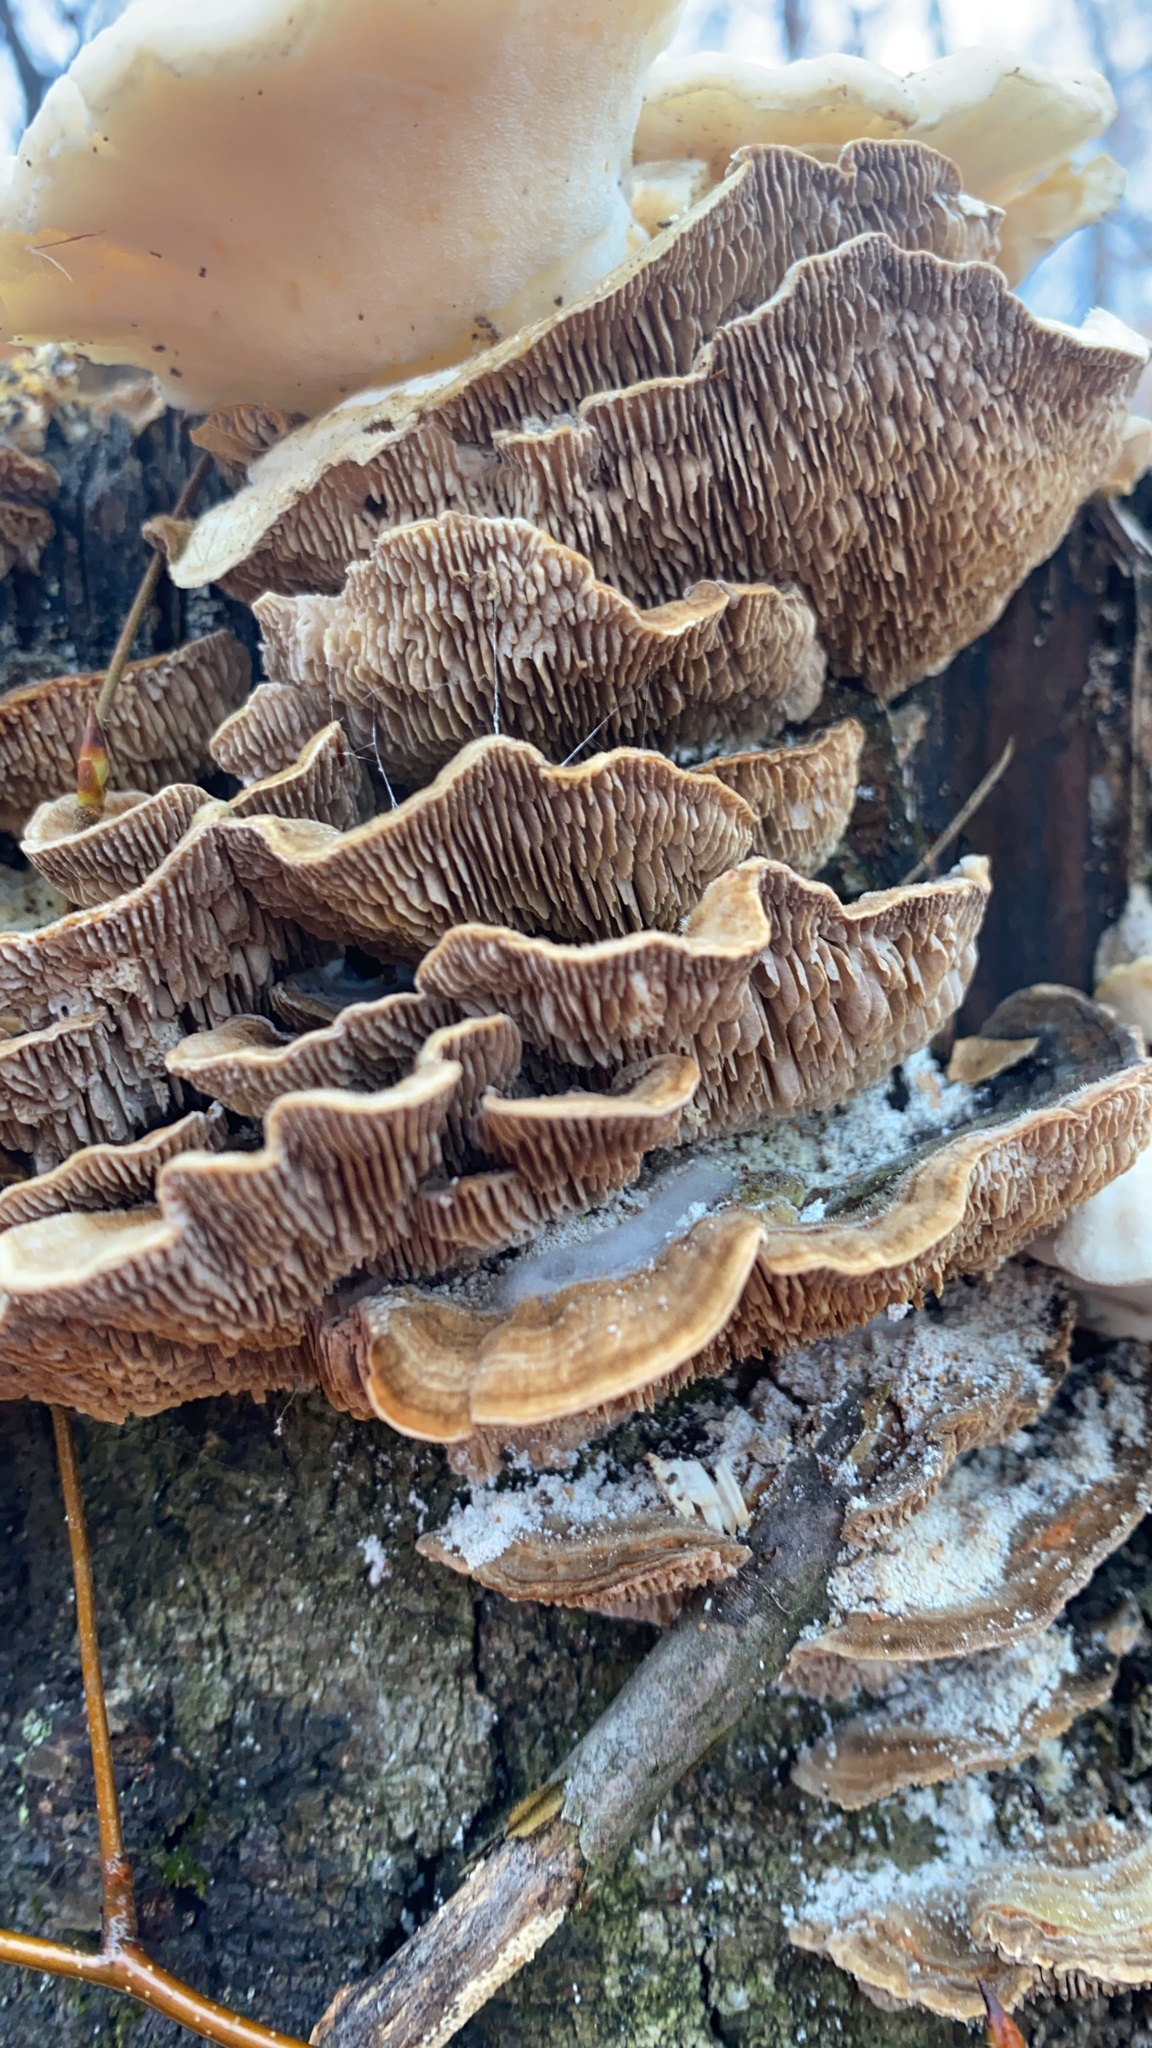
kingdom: Fungi
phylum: Basidiomycota
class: Agaricomycetes
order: Polyporales
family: Polyporaceae
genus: Lenzites
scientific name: Lenzites betulinus
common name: Birch mazegill
